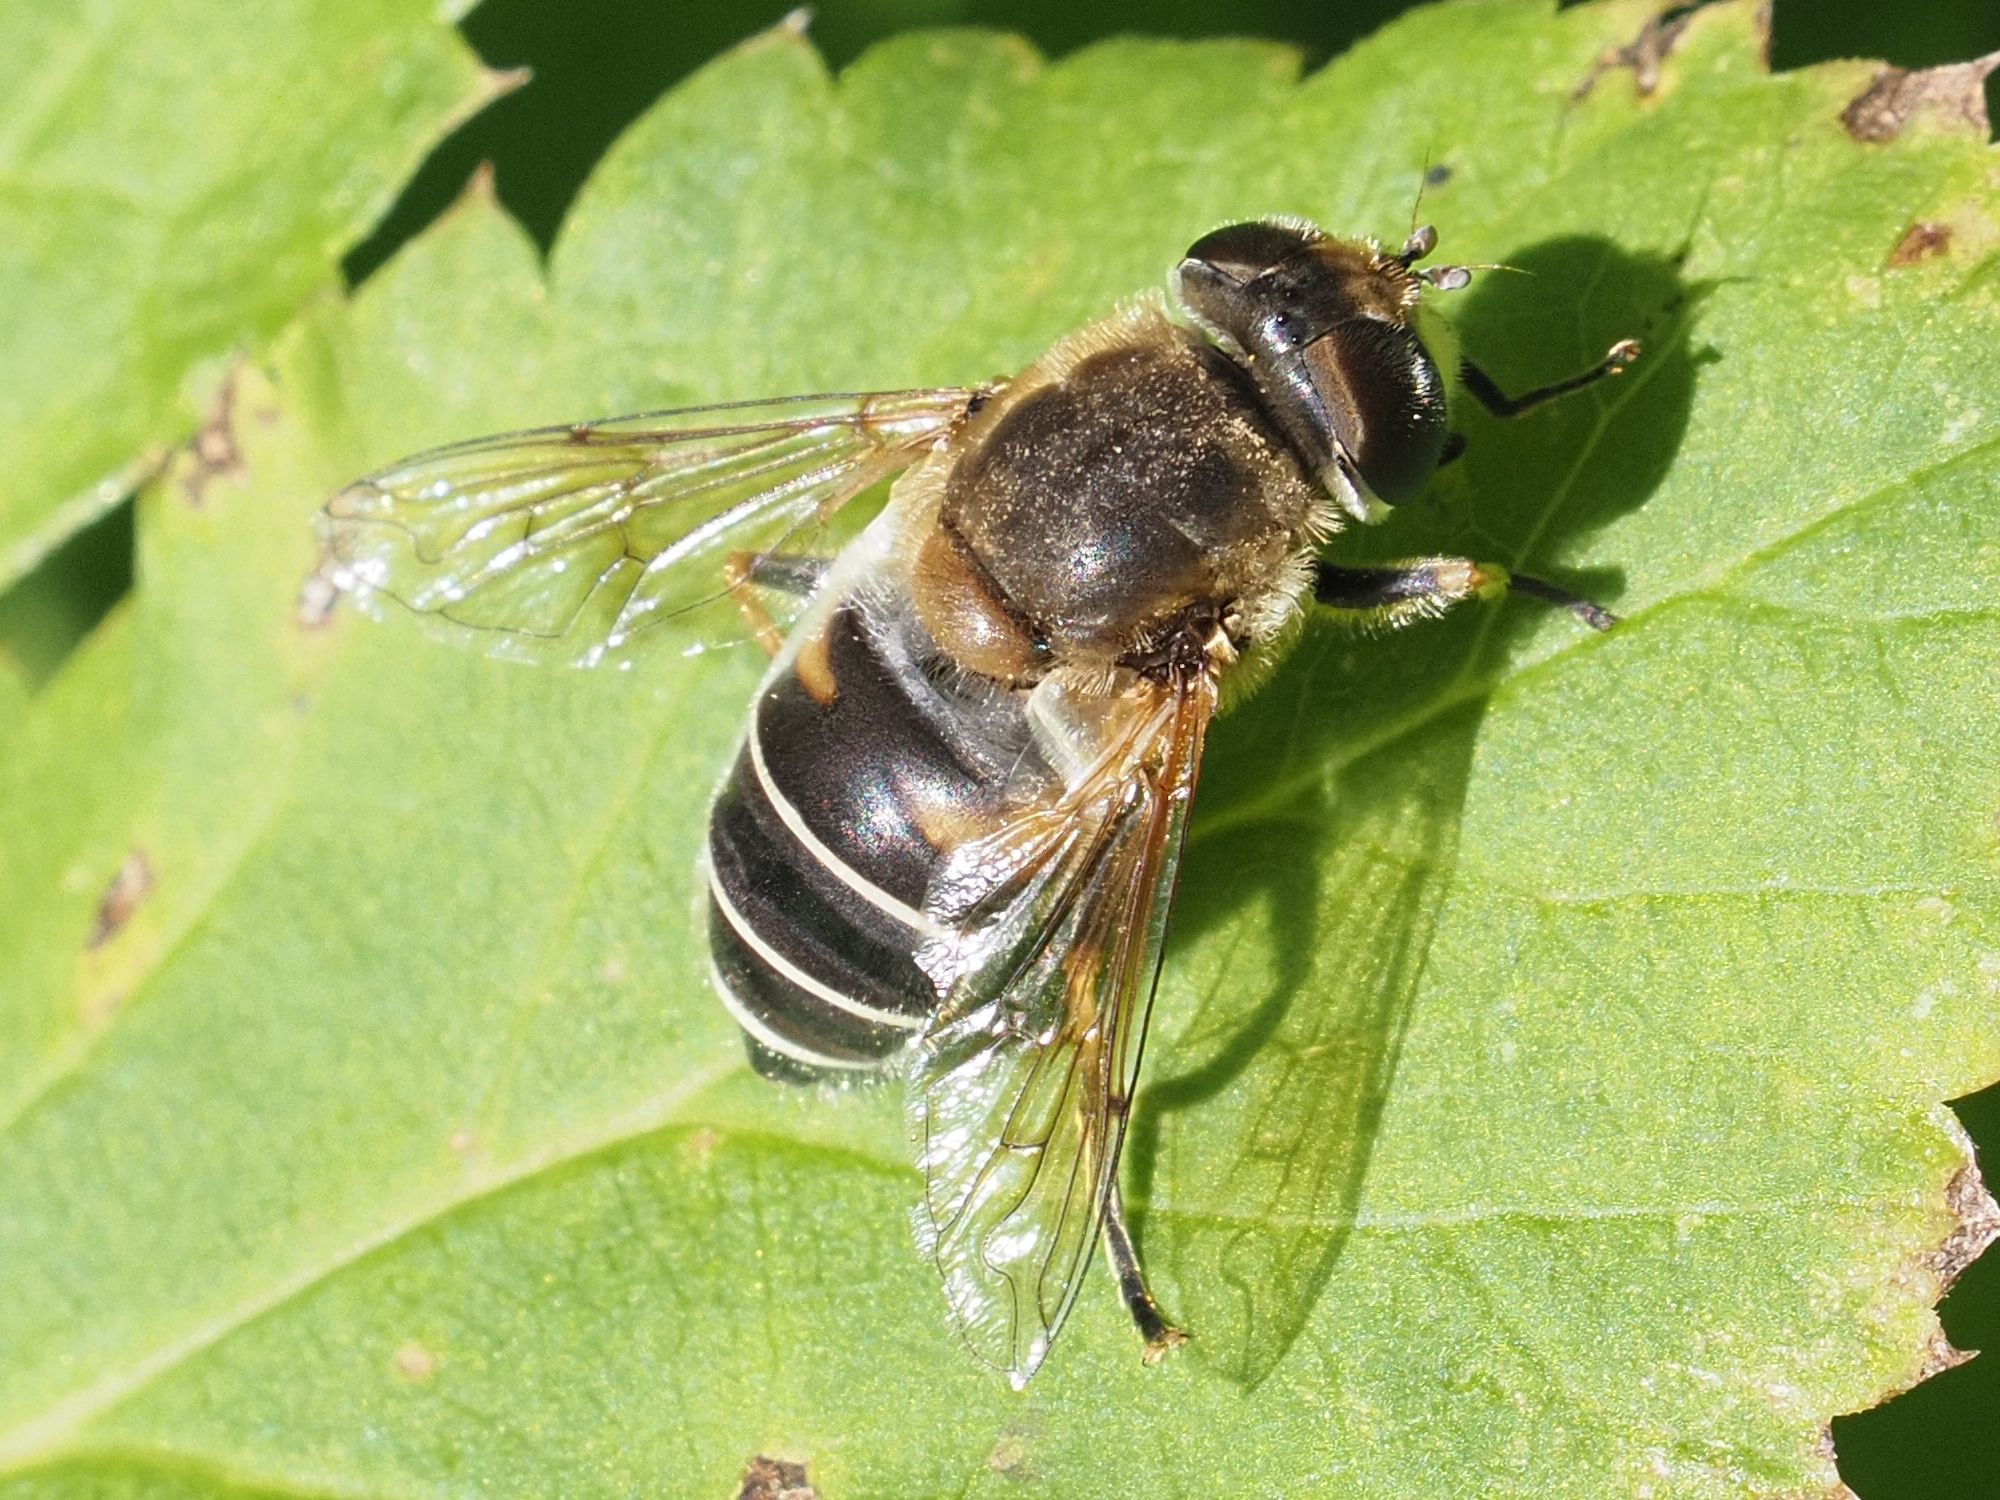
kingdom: Animalia
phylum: Arthropoda
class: Insecta
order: Diptera
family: Syrphidae
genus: Eristalis
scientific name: Eristalis nemorum
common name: Orange-spined drone fly
